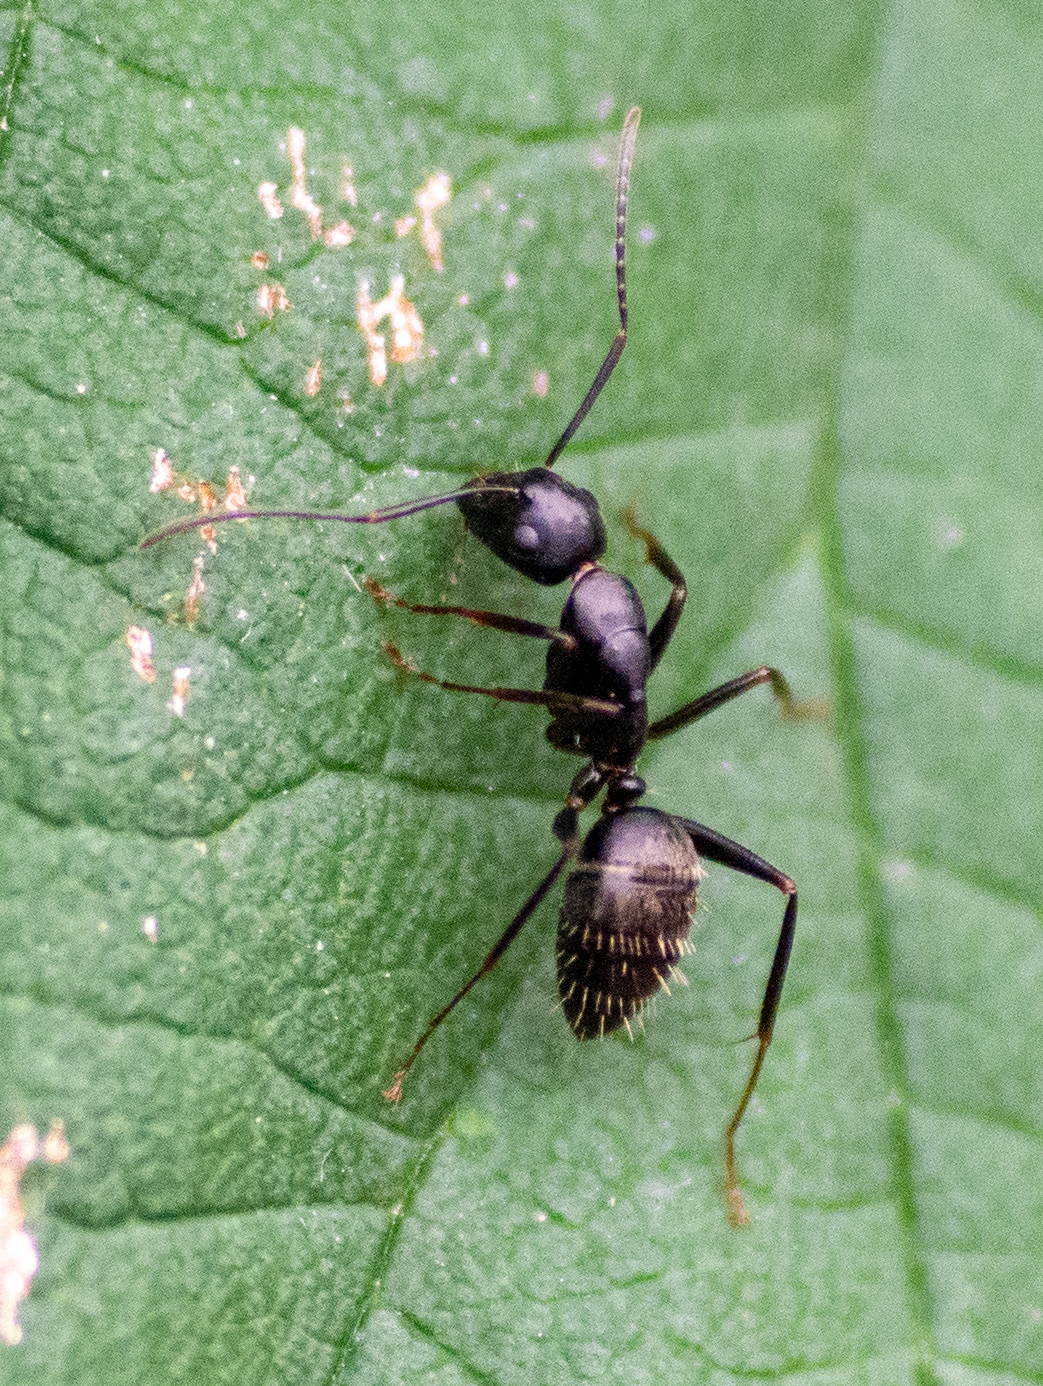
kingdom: Animalia
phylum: Arthropoda
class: Insecta
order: Hymenoptera
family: Formicidae
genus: Camponotus
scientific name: Camponotus pennsylvanicus
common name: Black carpenter ant
